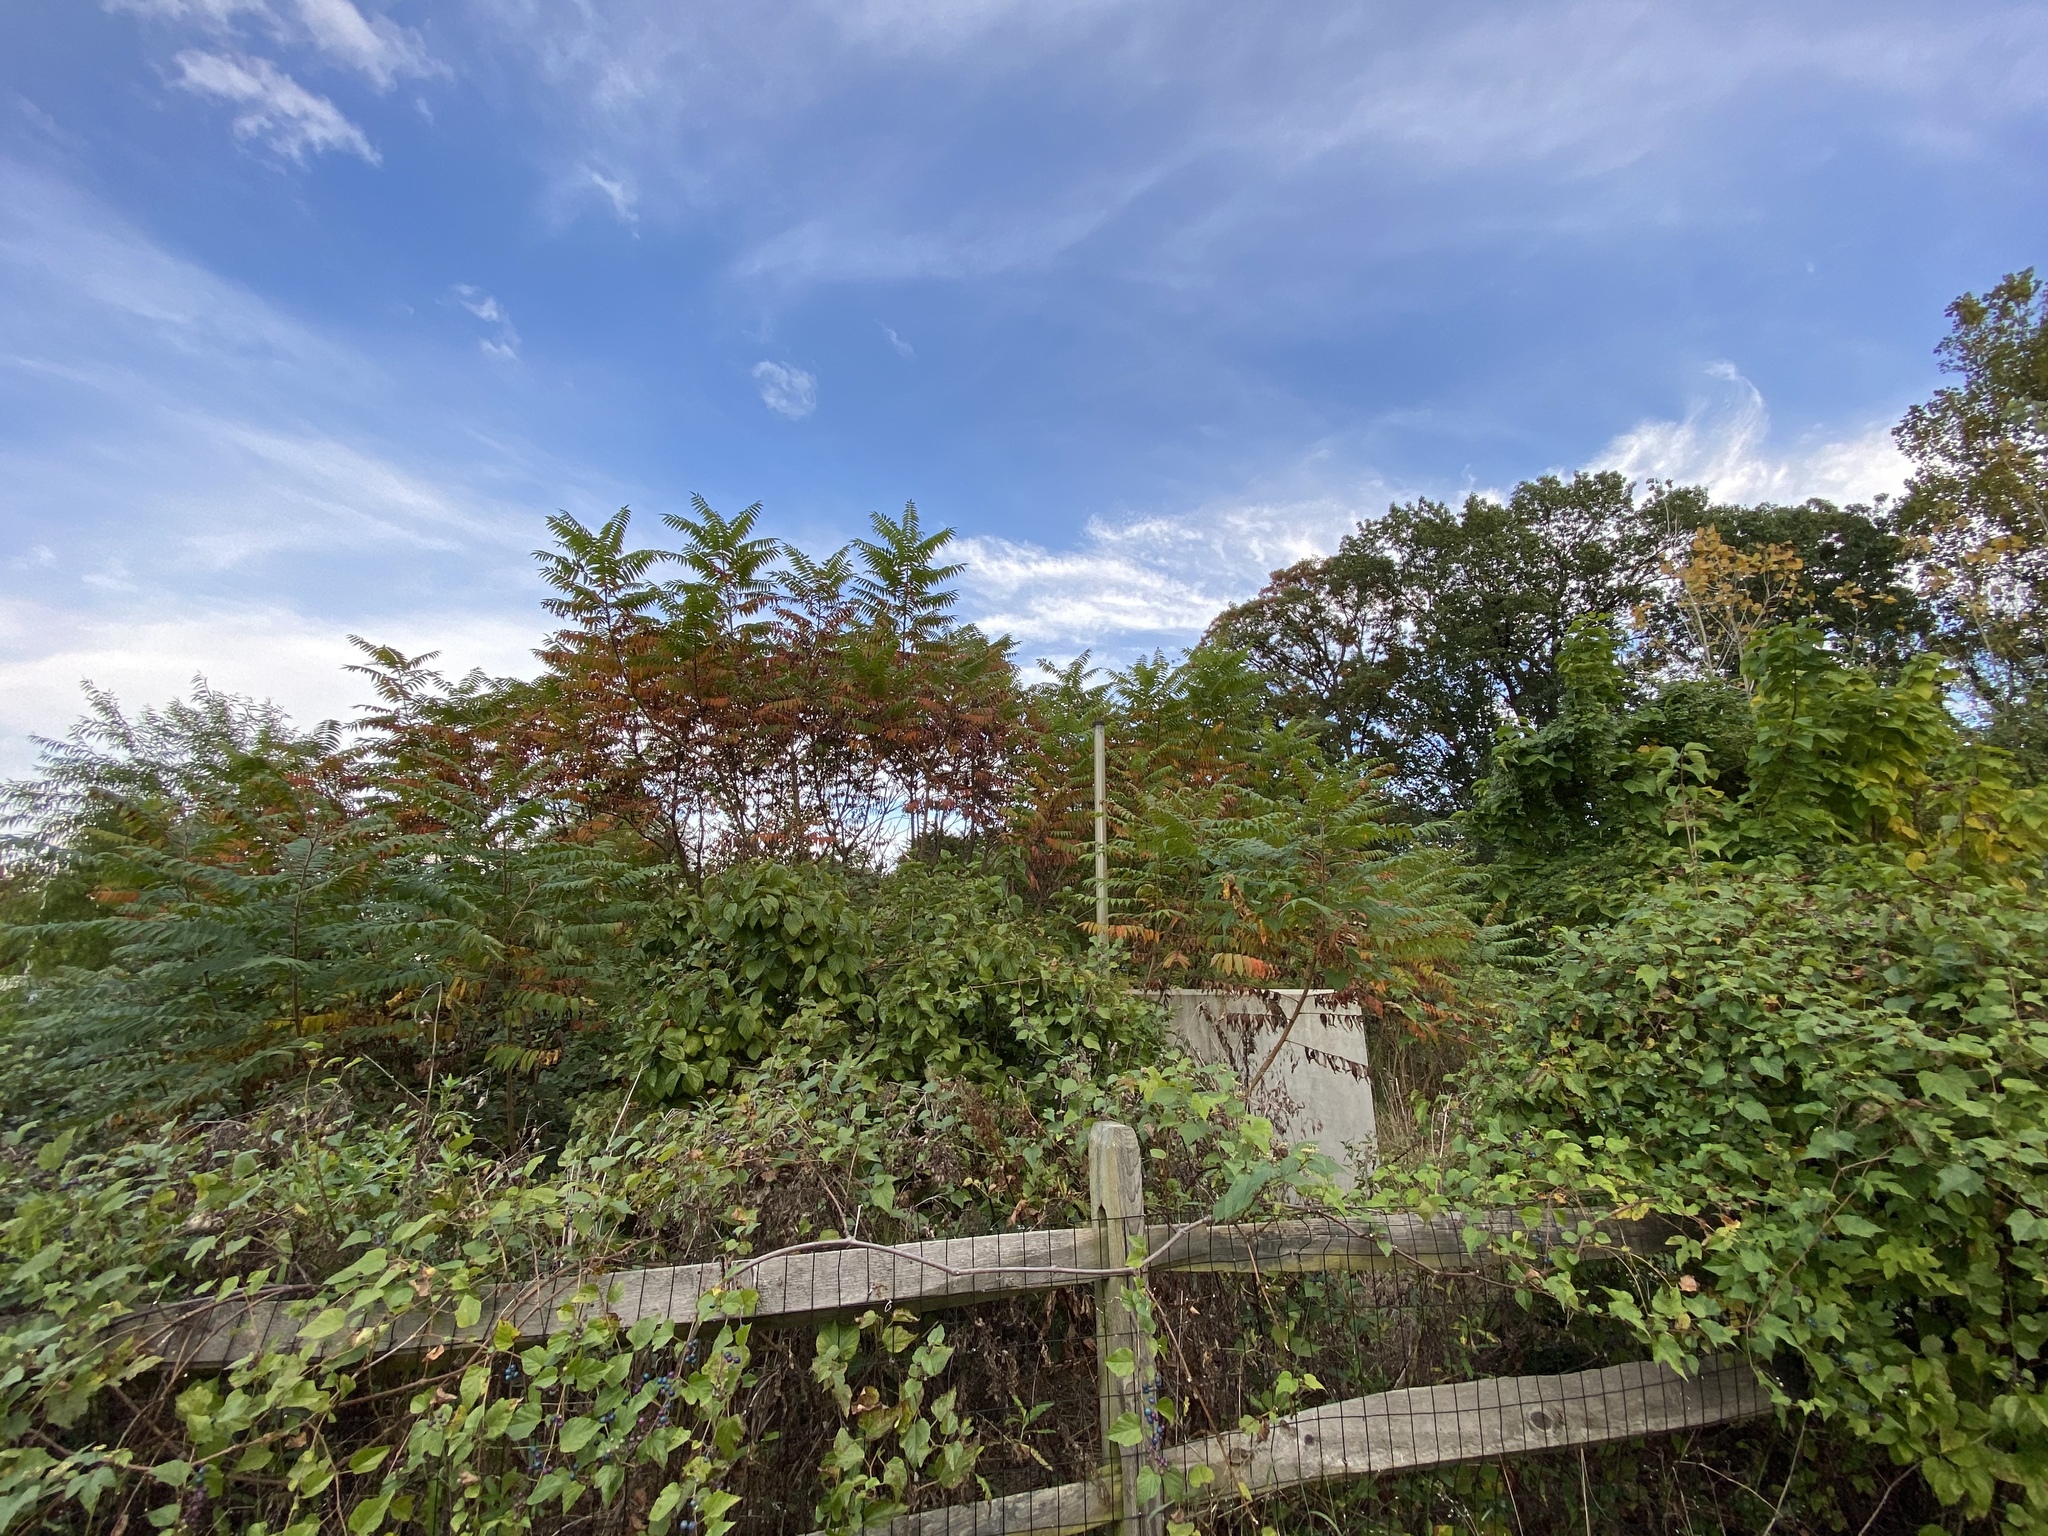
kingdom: Plantae
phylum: Tracheophyta
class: Magnoliopsida
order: Sapindales
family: Anacardiaceae
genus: Rhus
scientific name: Rhus typhina
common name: Staghorn sumac
